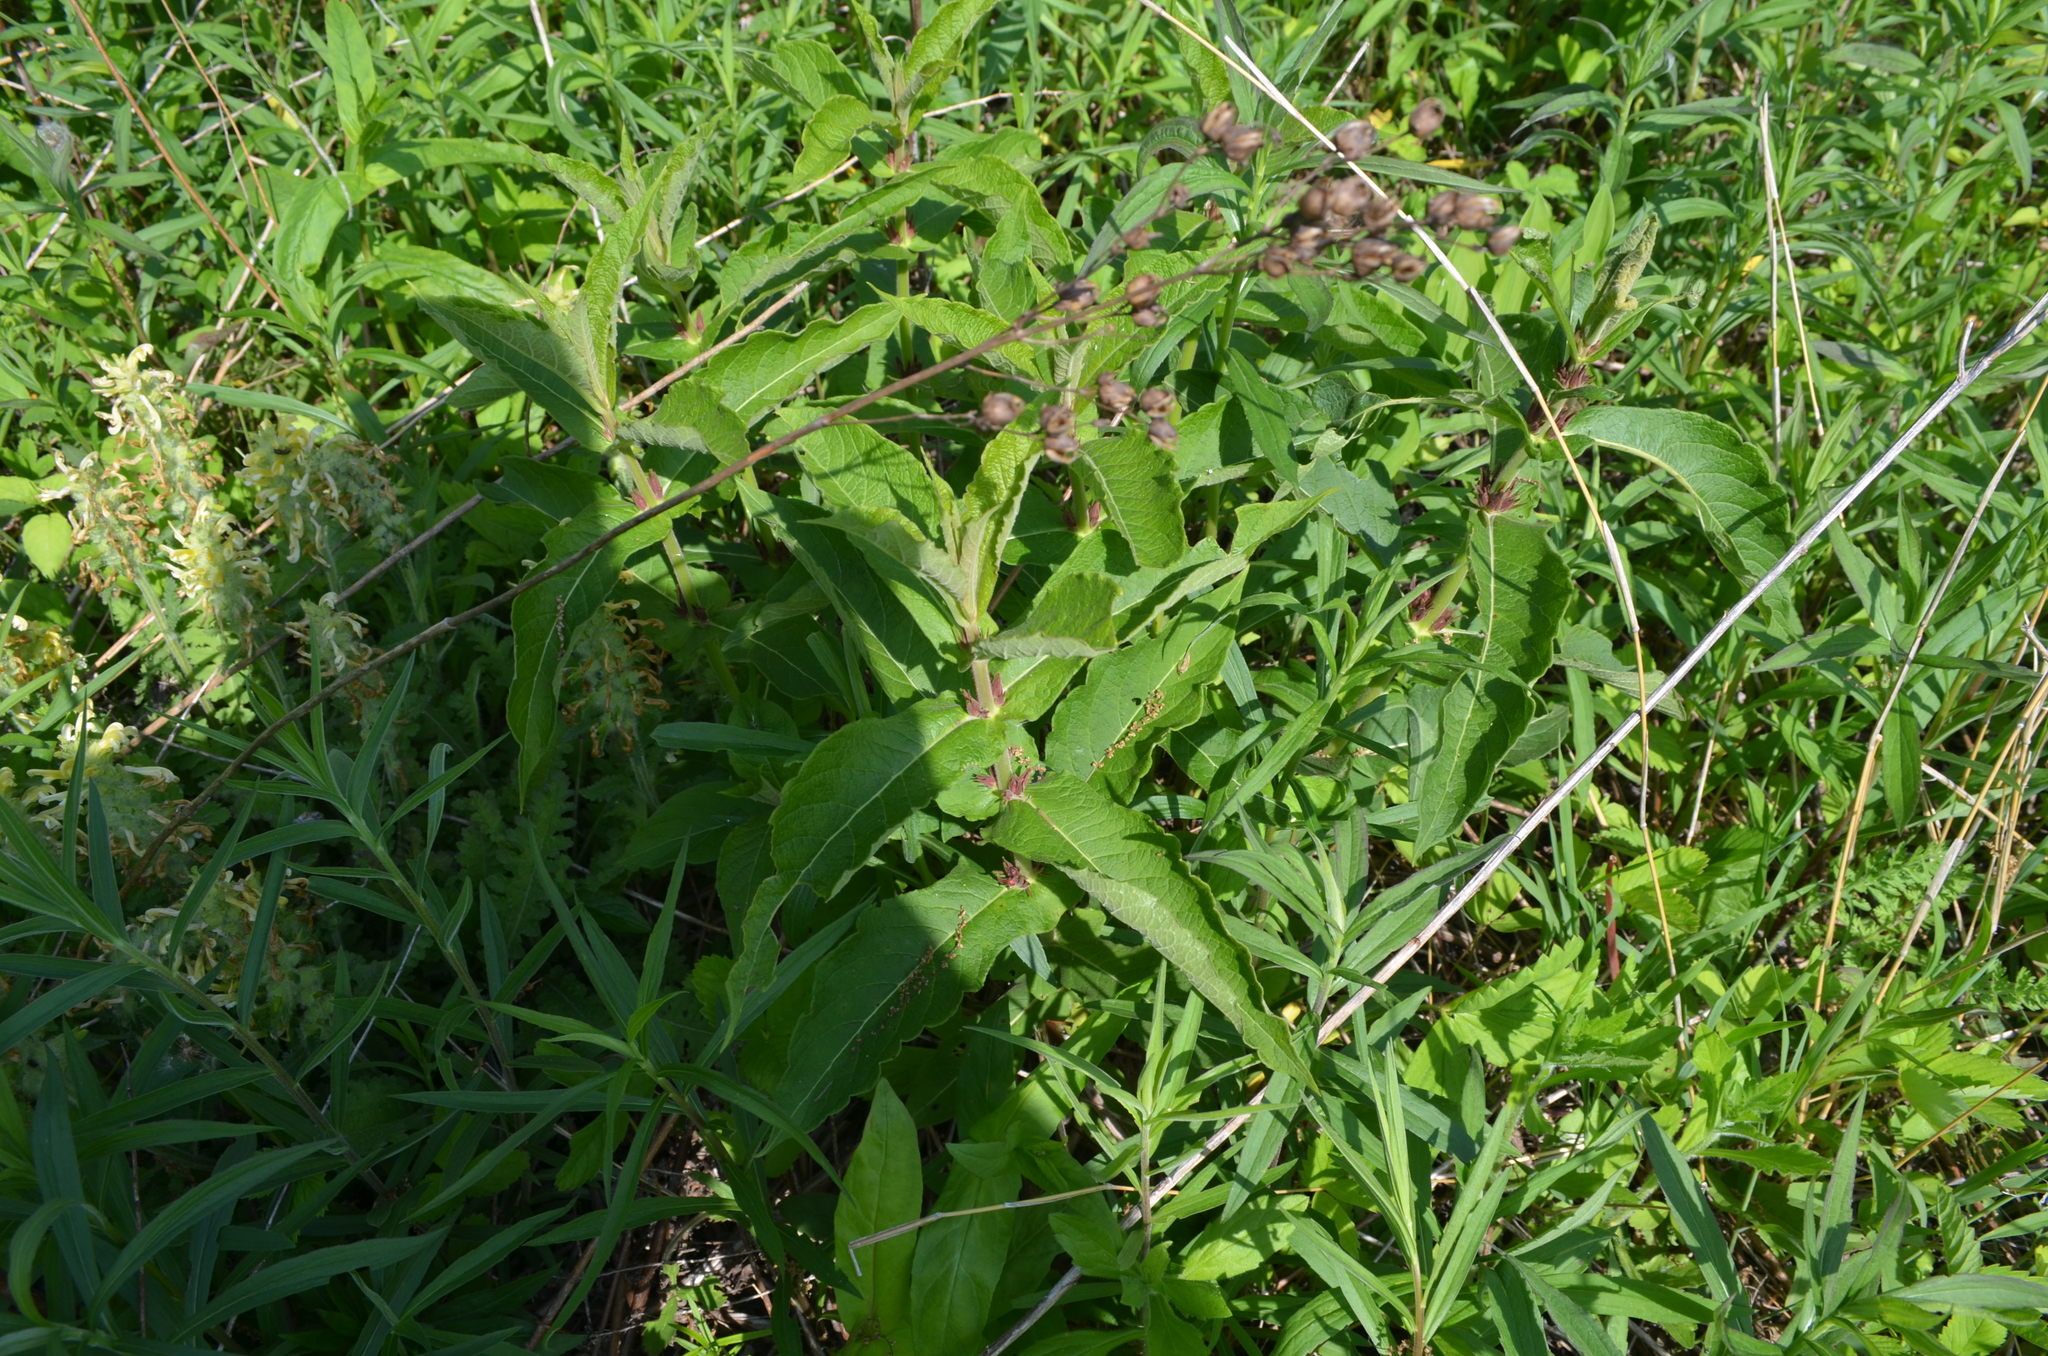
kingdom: Plantae
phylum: Tracheophyta
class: Magnoliopsida
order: Dipsacales
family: Caprifoliaceae
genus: Triosteum
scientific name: Triosteum perfoliatum
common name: Common horse-gentian
